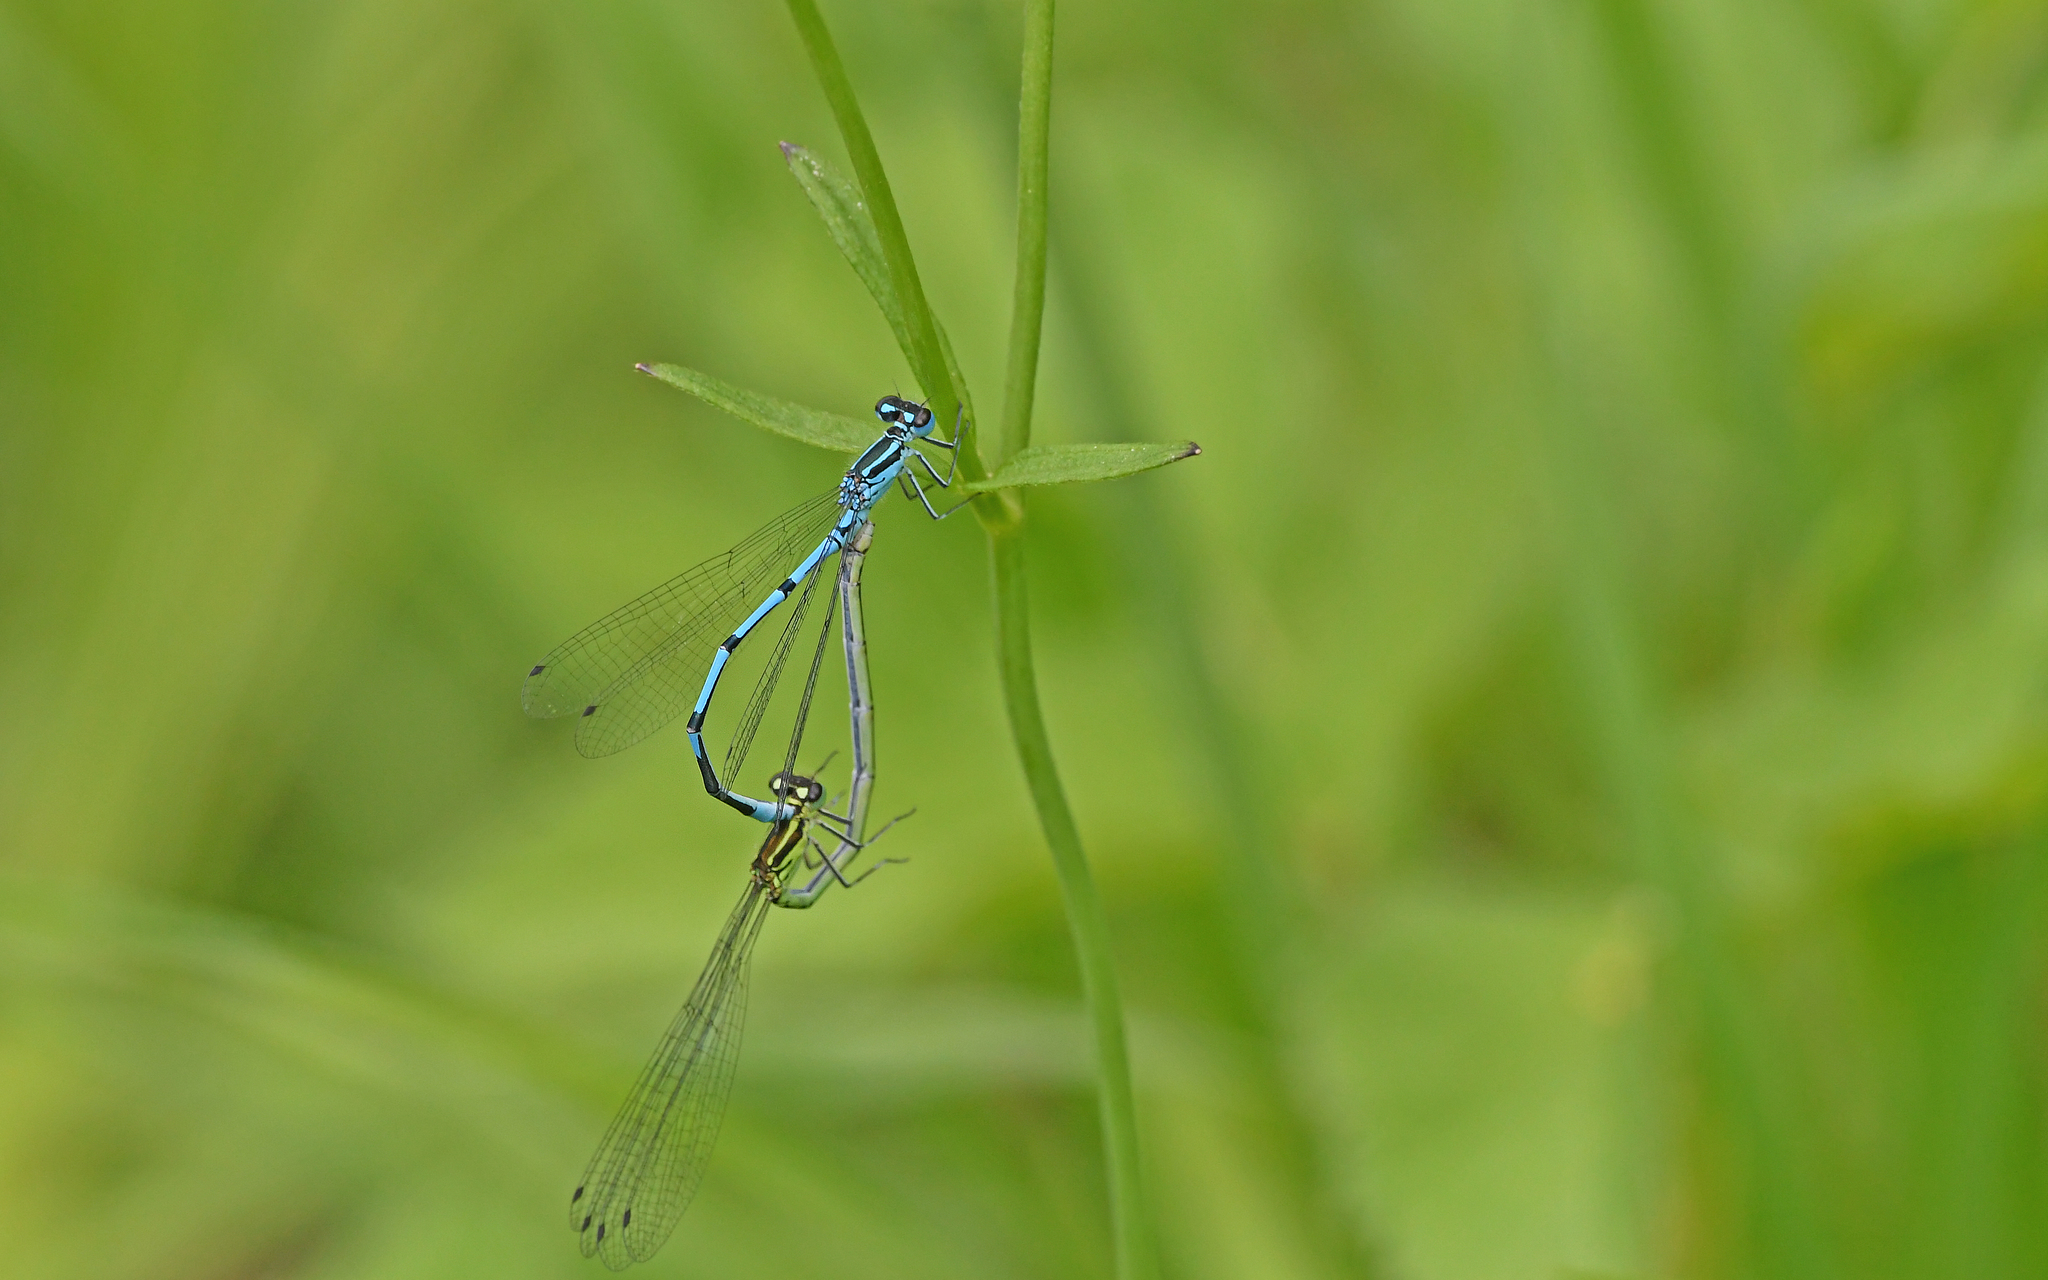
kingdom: Animalia
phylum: Arthropoda
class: Insecta
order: Odonata
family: Coenagrionidae
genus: Coenagrion
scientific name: Coenagrion puella
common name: Azure damselfly
